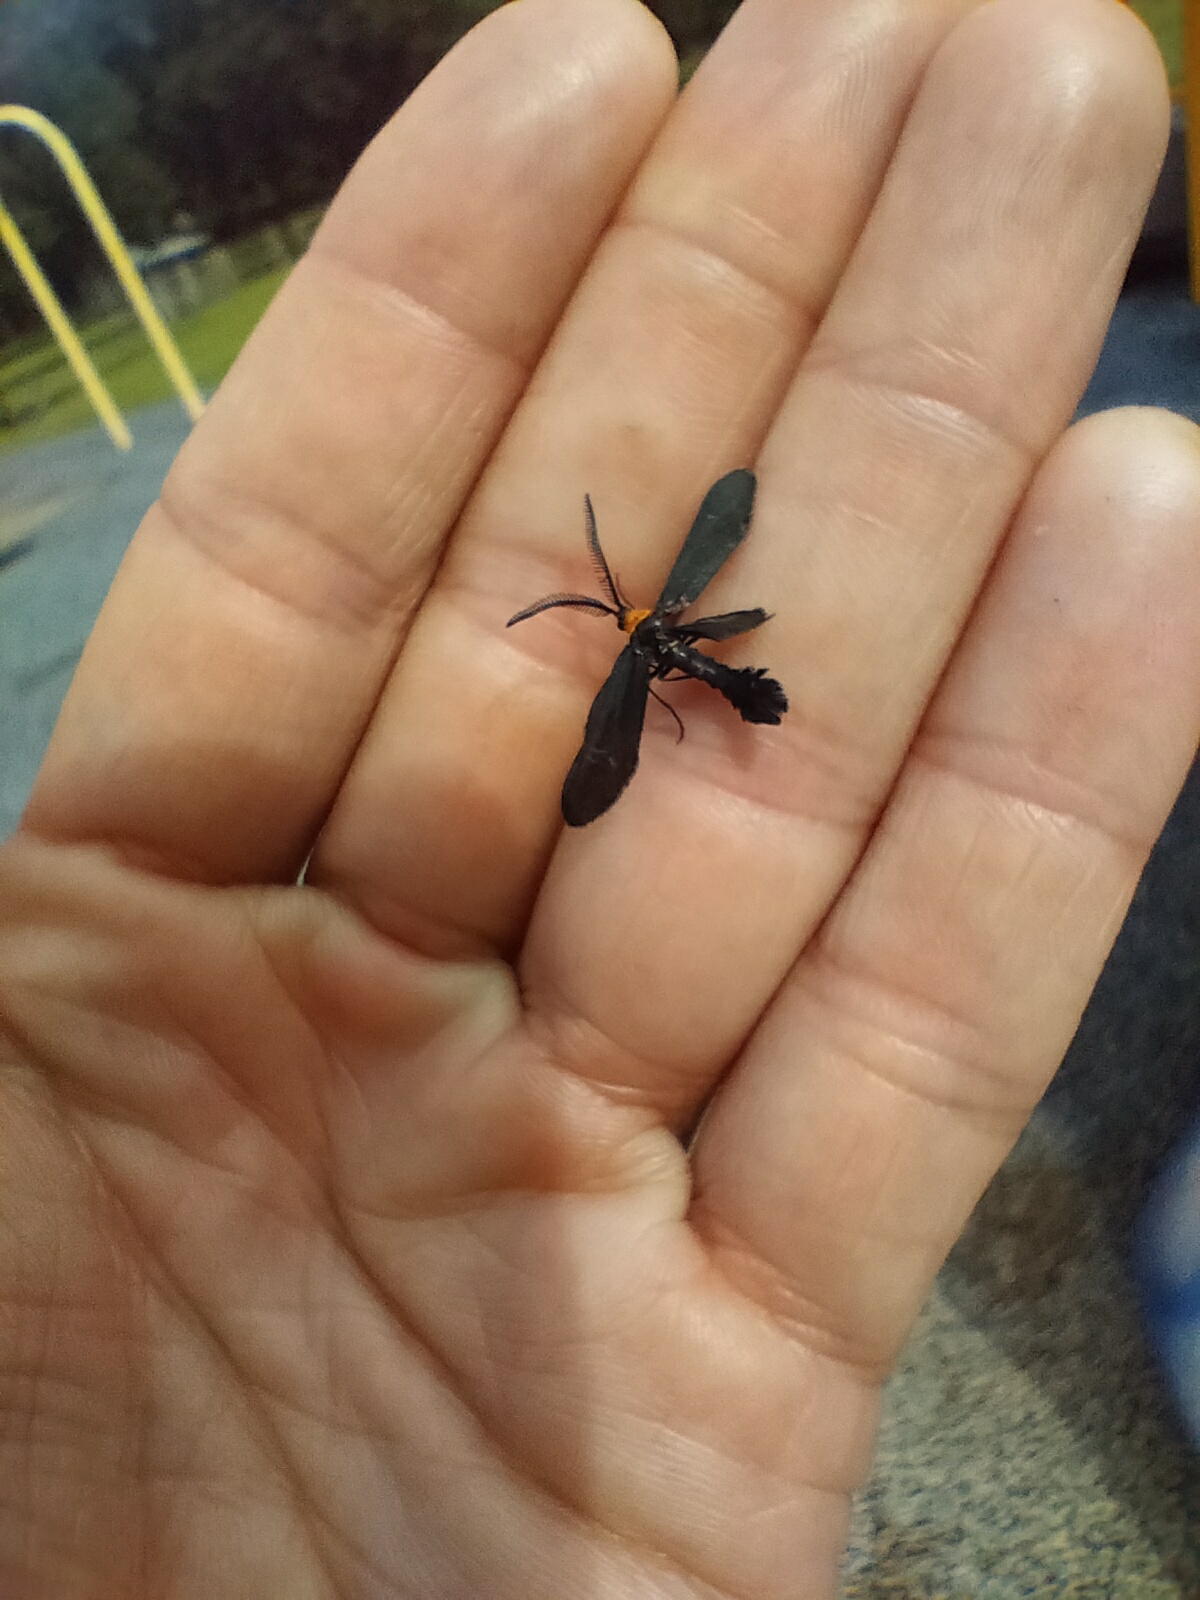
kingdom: Animalia
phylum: Arthropoda
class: Insecta
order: Lepidoptera
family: Zygaenidae
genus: Harrisina
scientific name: Harrisina americana
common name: Grapeleaf skeletonizer moth
